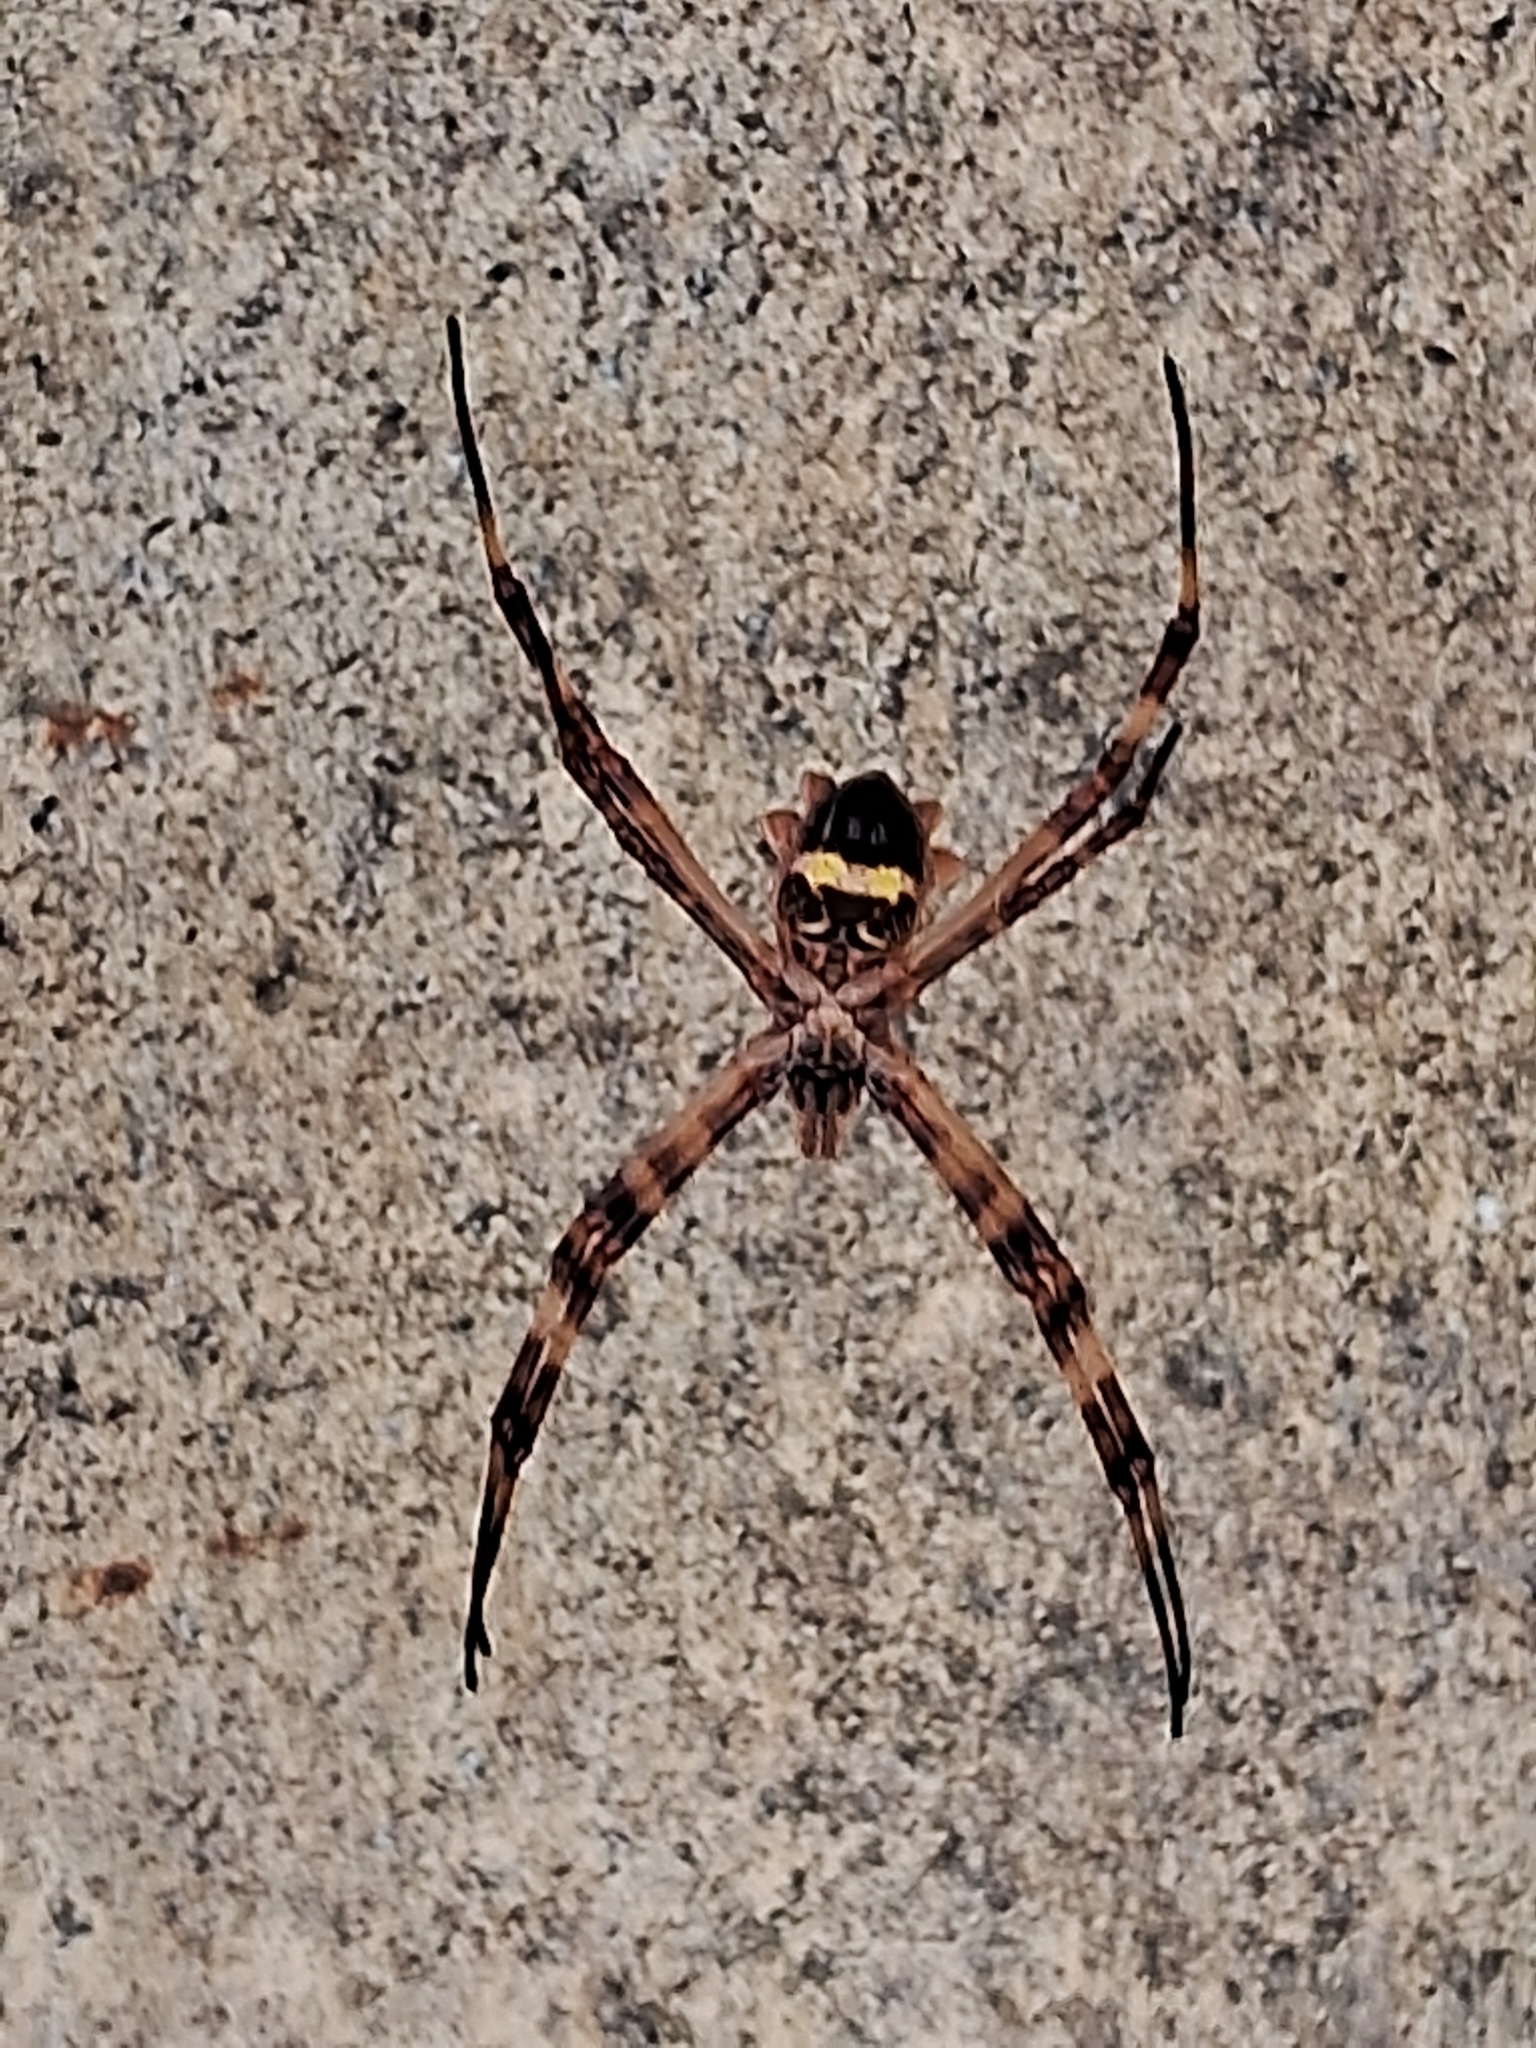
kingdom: Animalia
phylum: Arthropoda
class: Arachnida
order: Araneae
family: Araneidae
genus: Argiope
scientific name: Argiope argentata
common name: Orb weavers
